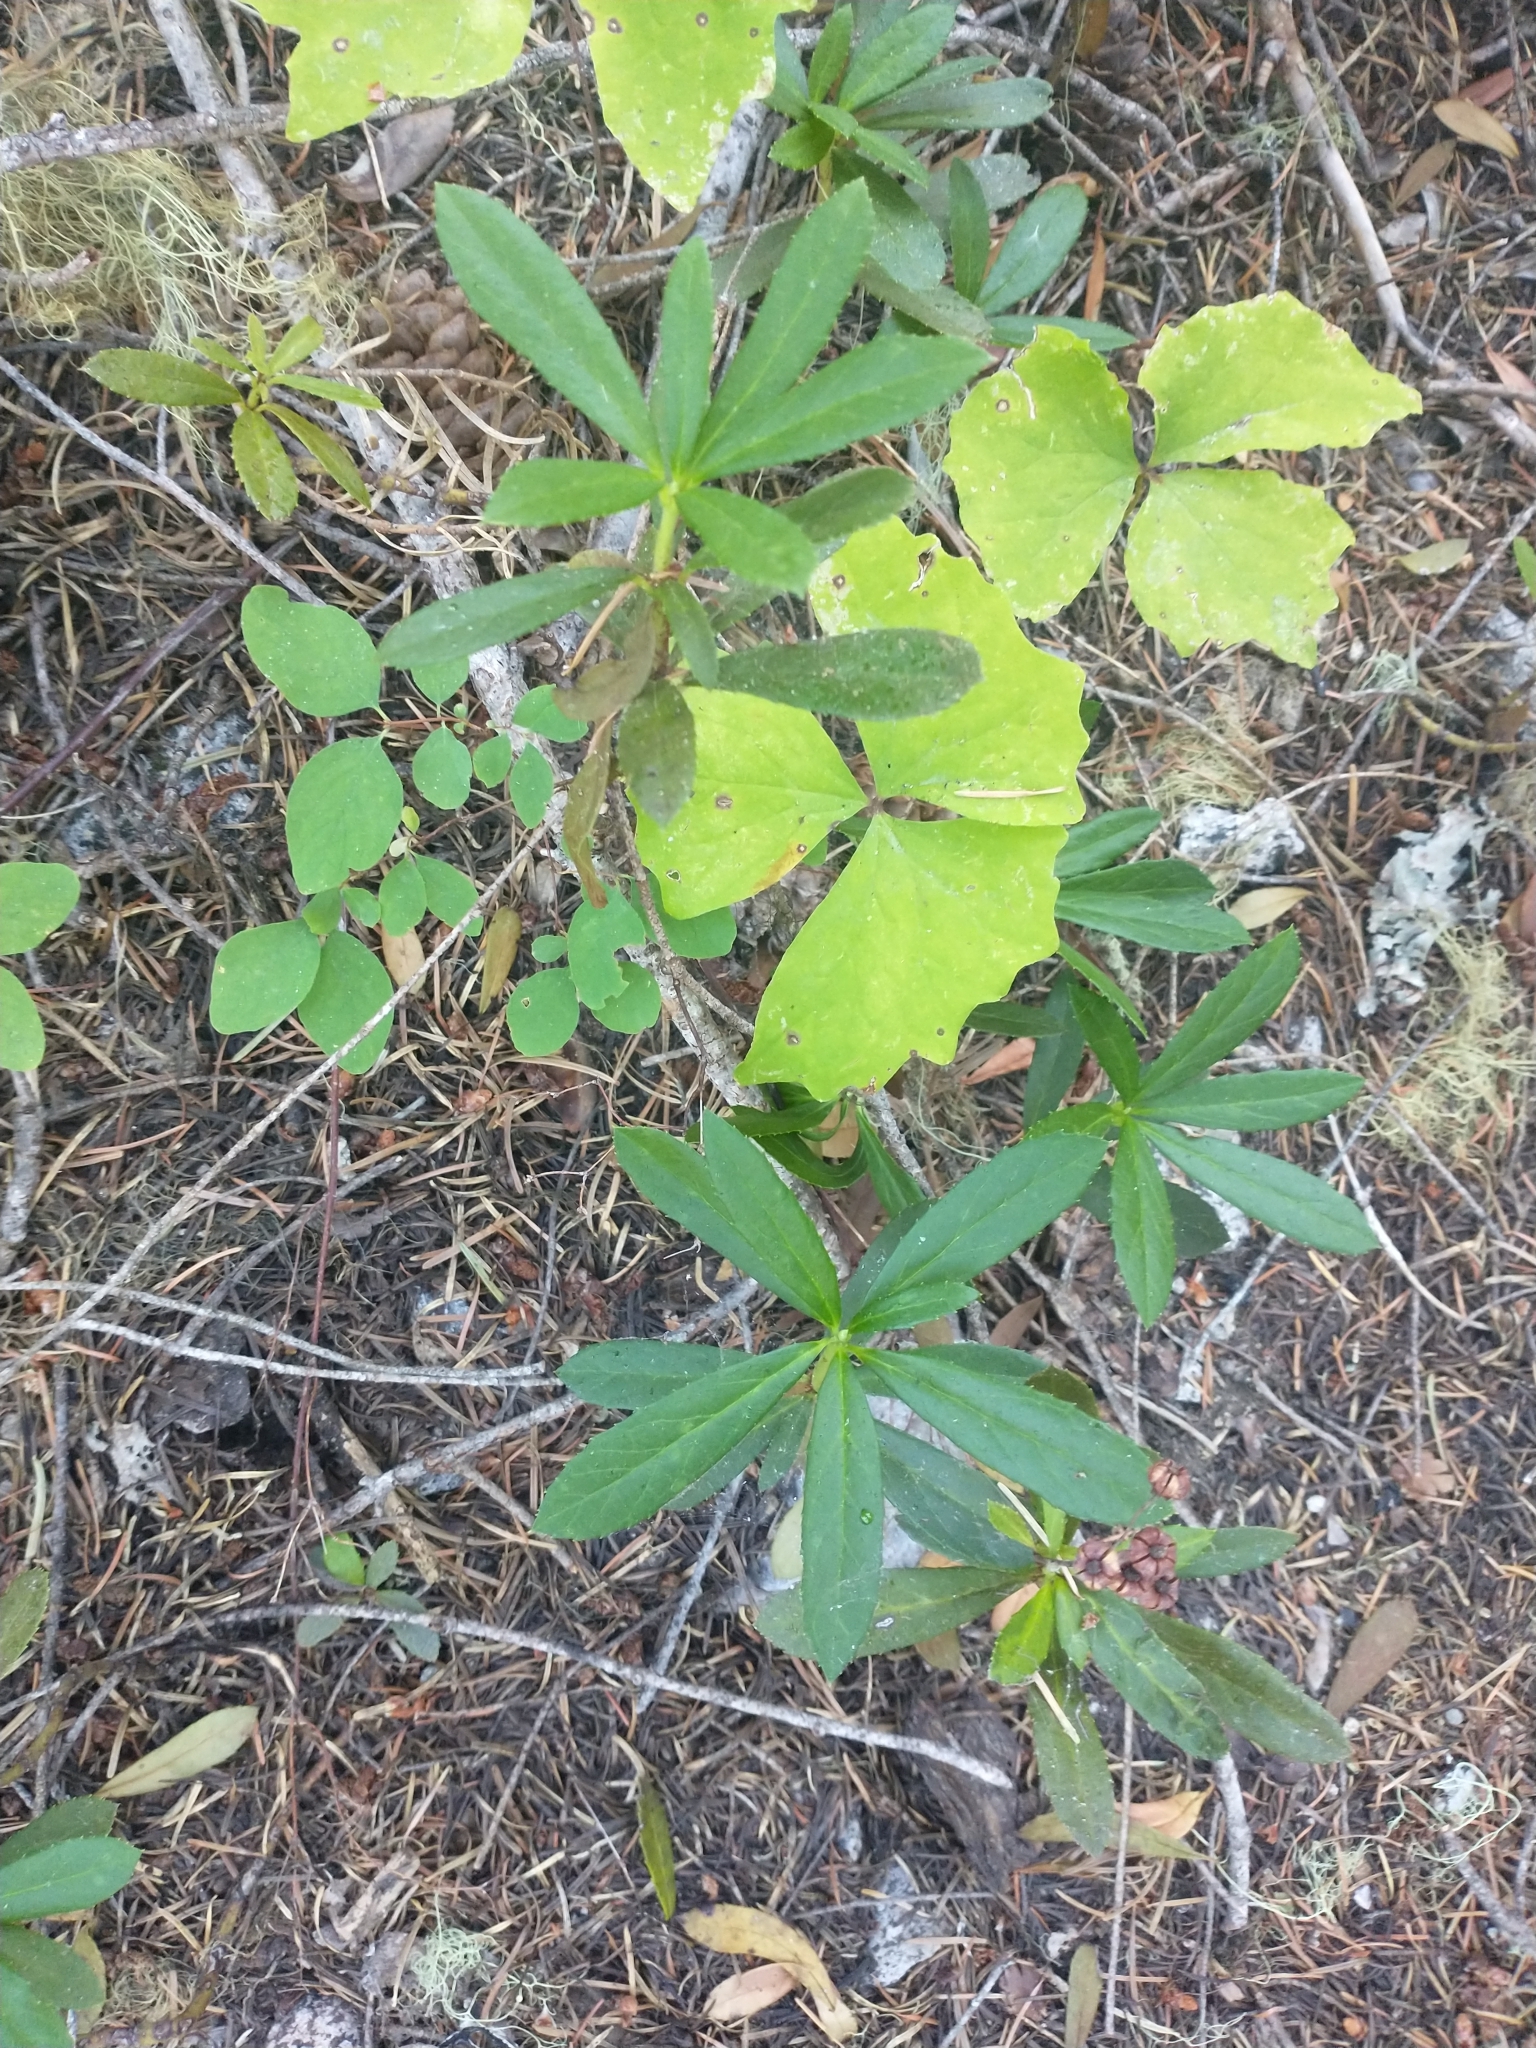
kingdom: Plantae
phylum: Tracheophyta
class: Magnoliopsida
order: Ericales
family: Ericaceae
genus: Chimaphila
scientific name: Chimaphila umbellata
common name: Pipsissewa
